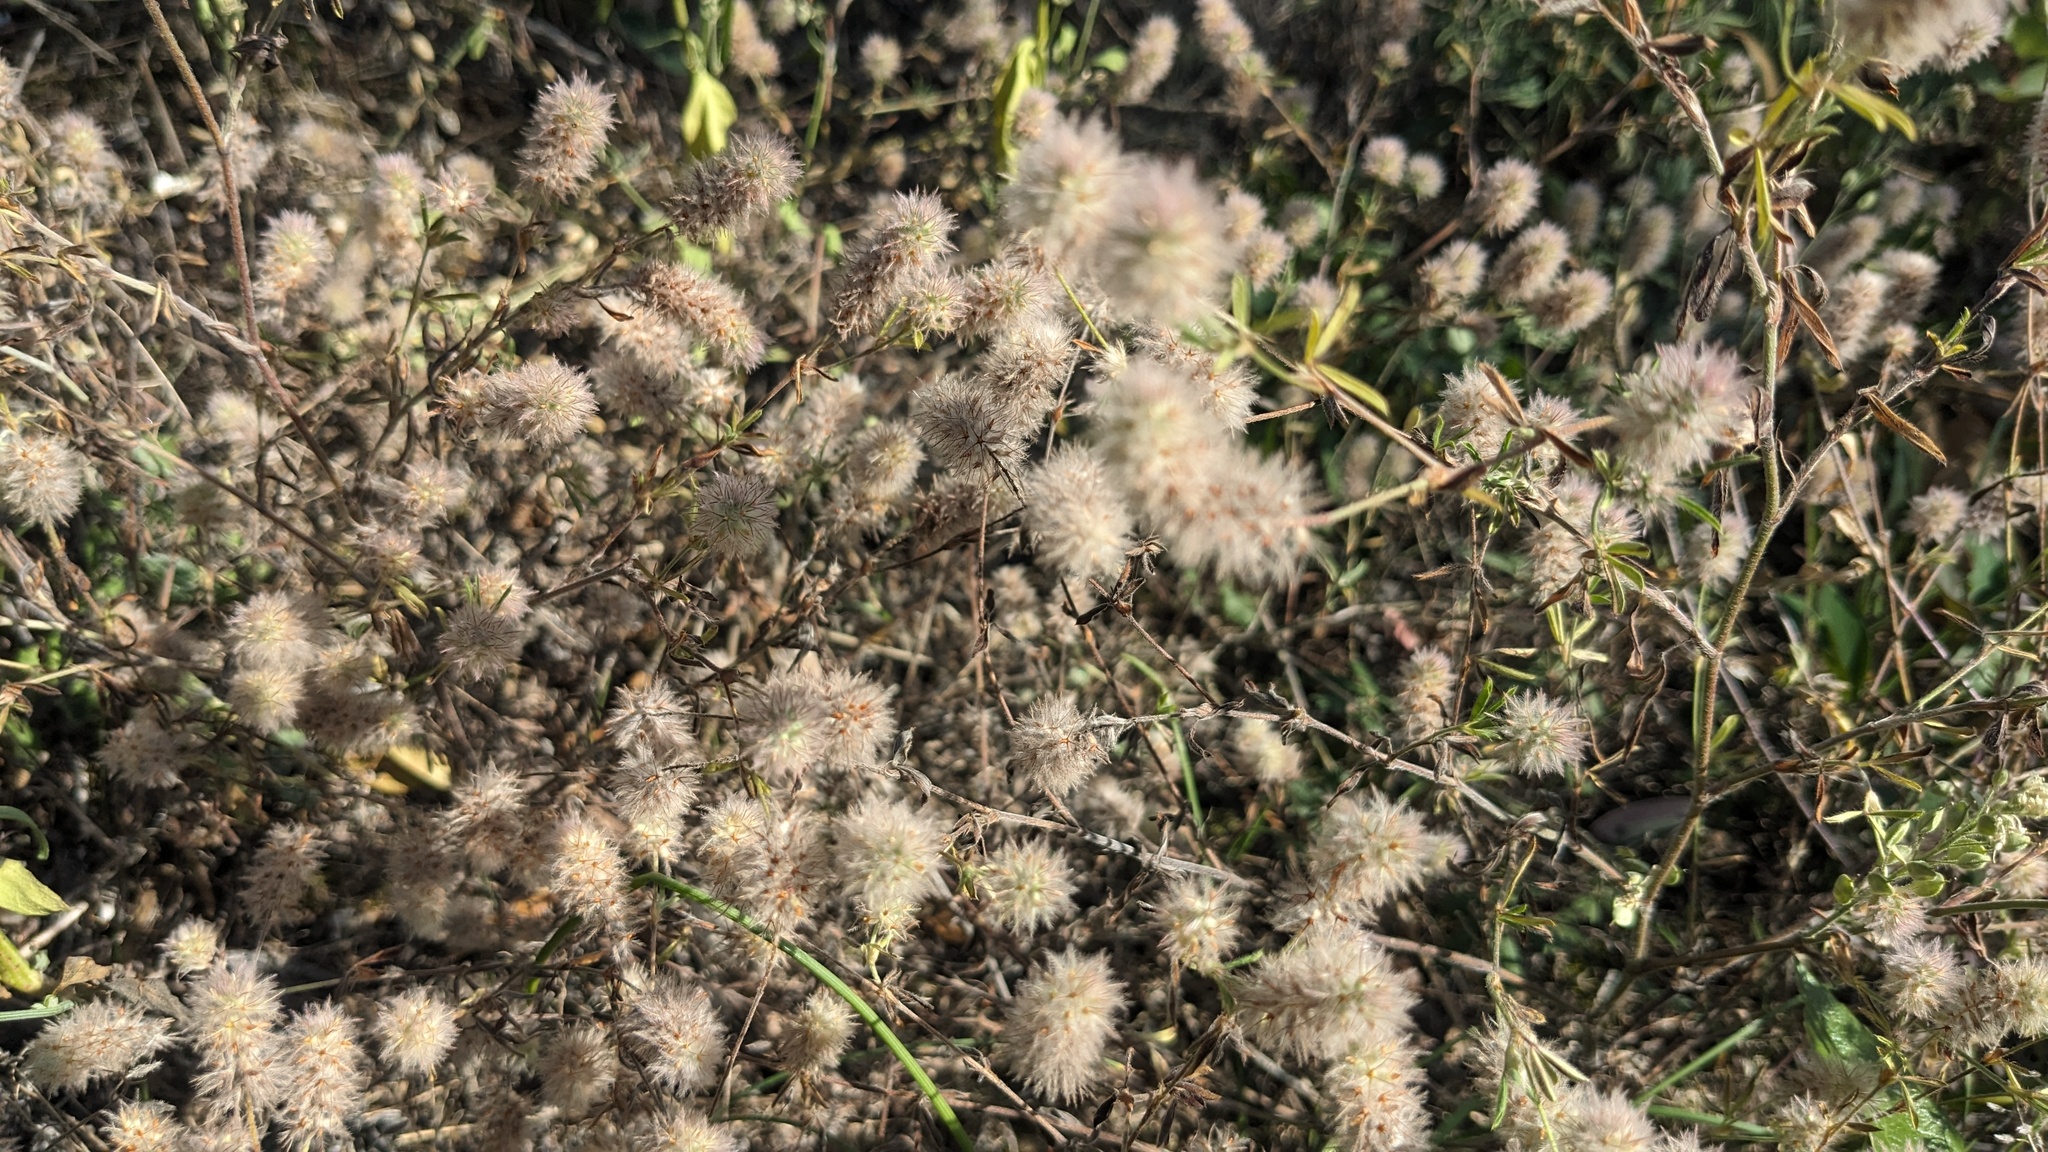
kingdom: Plantae
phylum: Tracheophyta
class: Magnoliopsida
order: Fabales
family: Fabaceae
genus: Trifolium
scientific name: Trifolium arvense
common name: Hare's-foot clover
